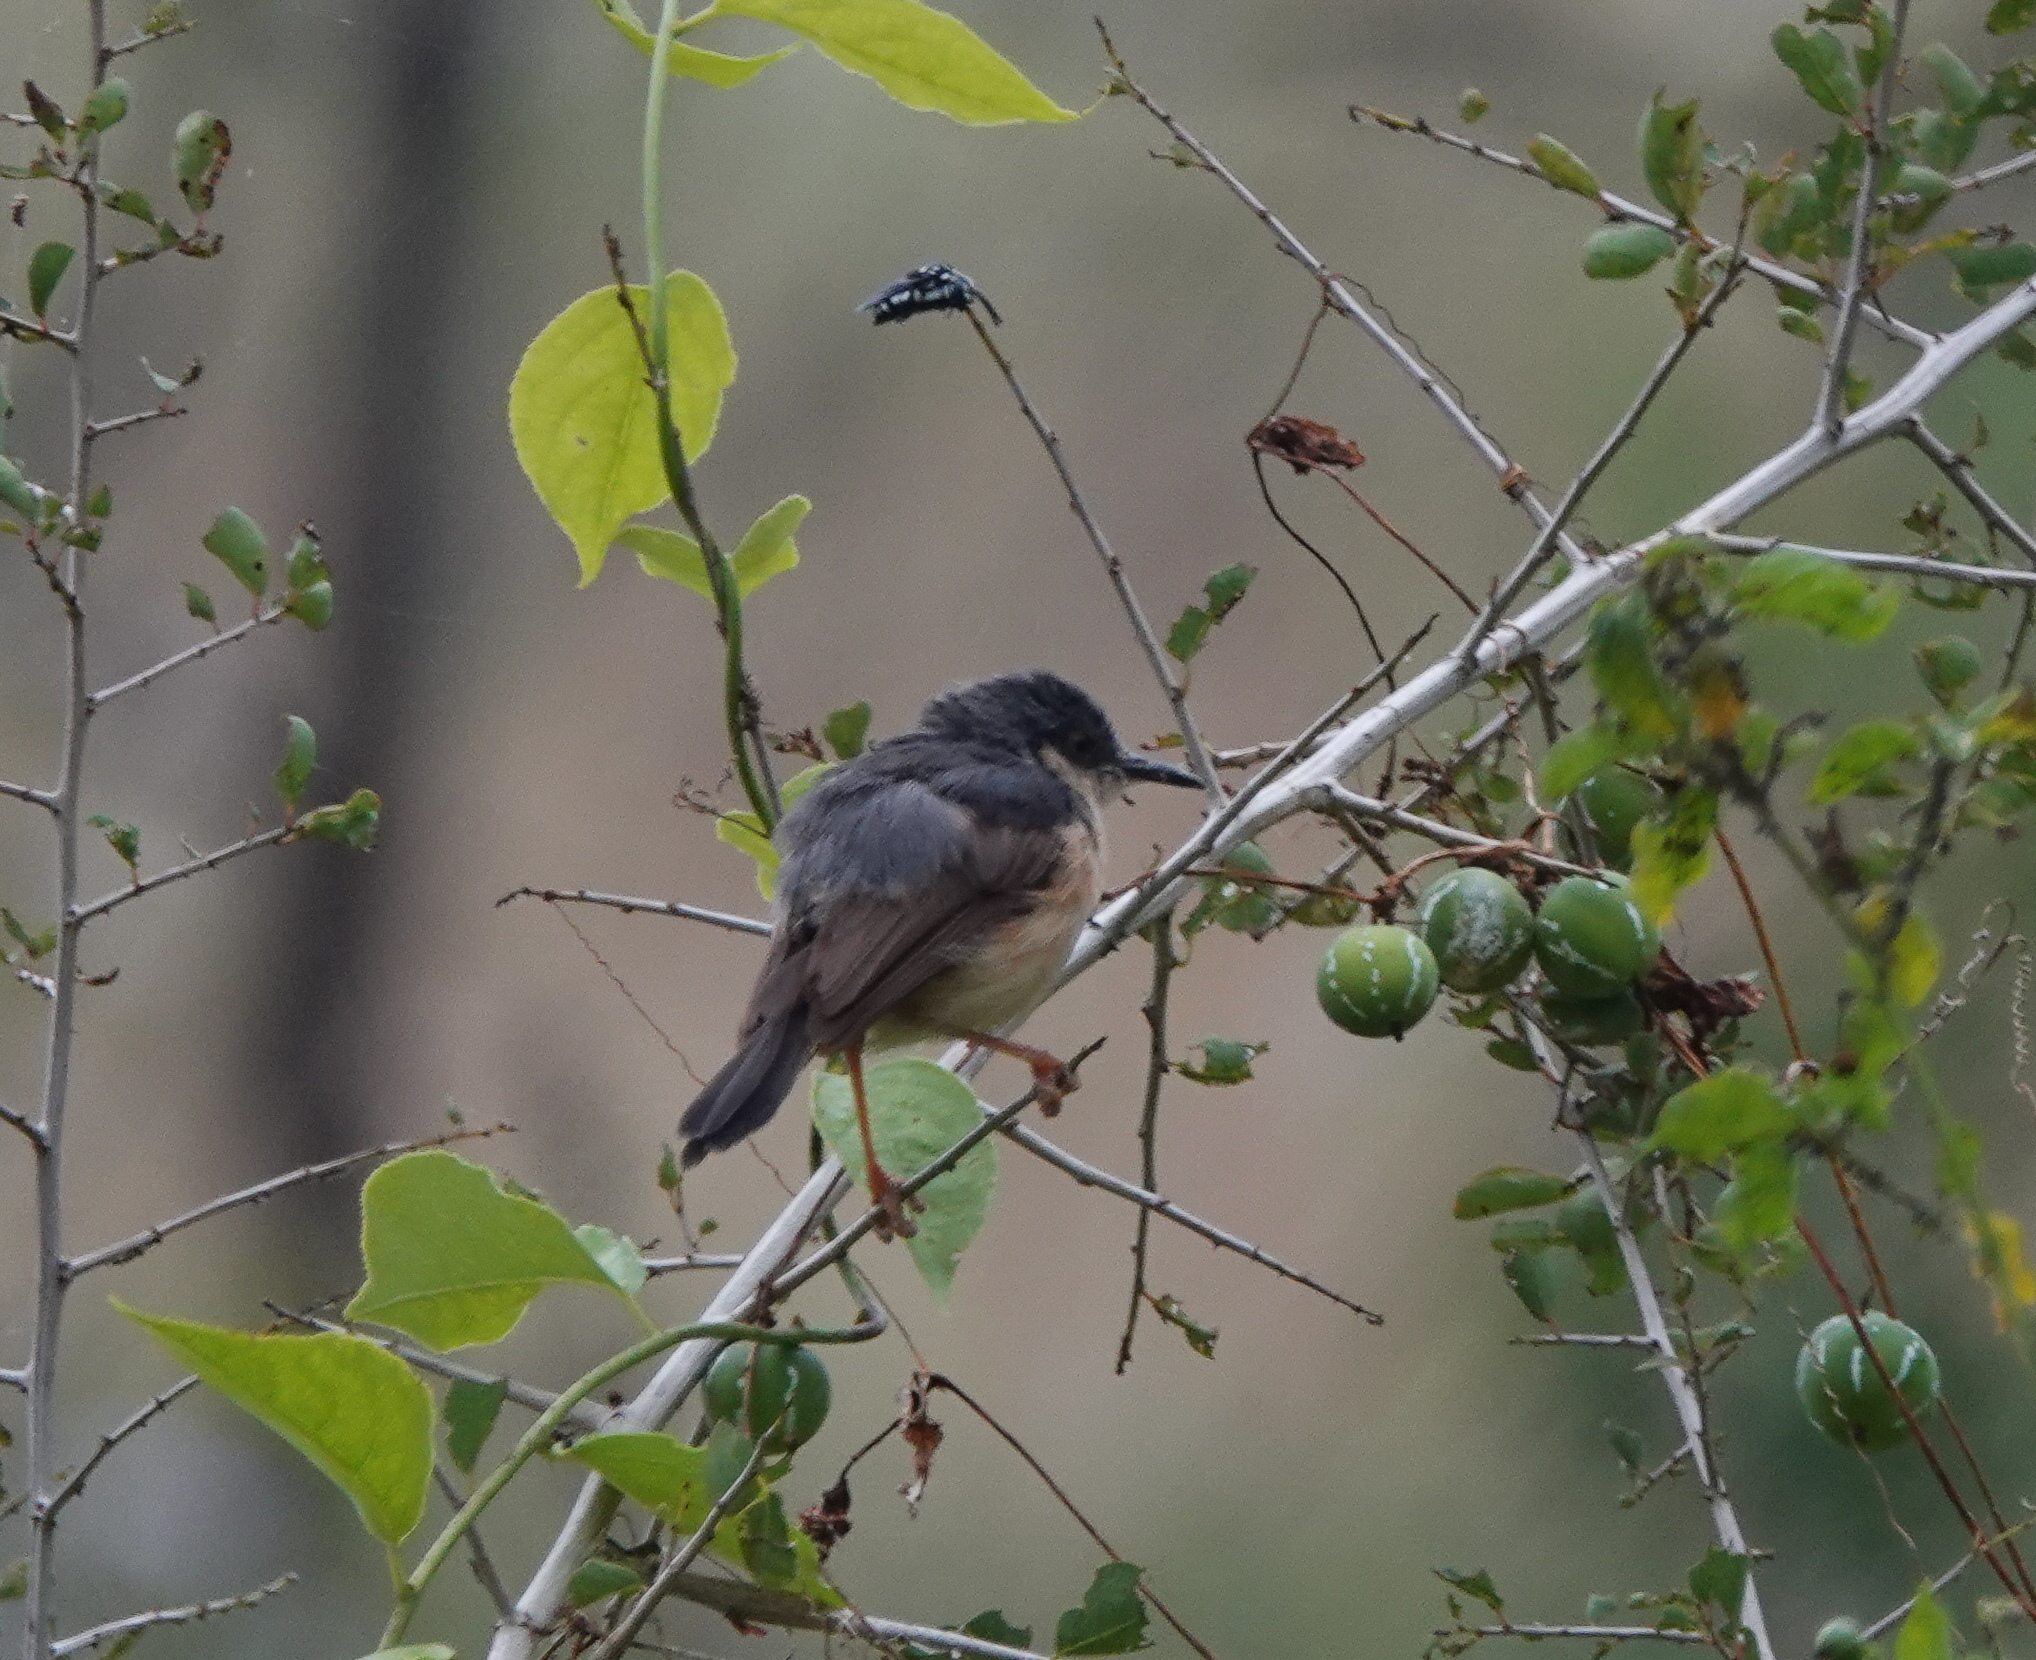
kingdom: Animalia
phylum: Chordata
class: Aves
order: Passeriformes
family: Cisticolidae
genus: Prinia
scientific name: Prinia socialis
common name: Ashy prinia
